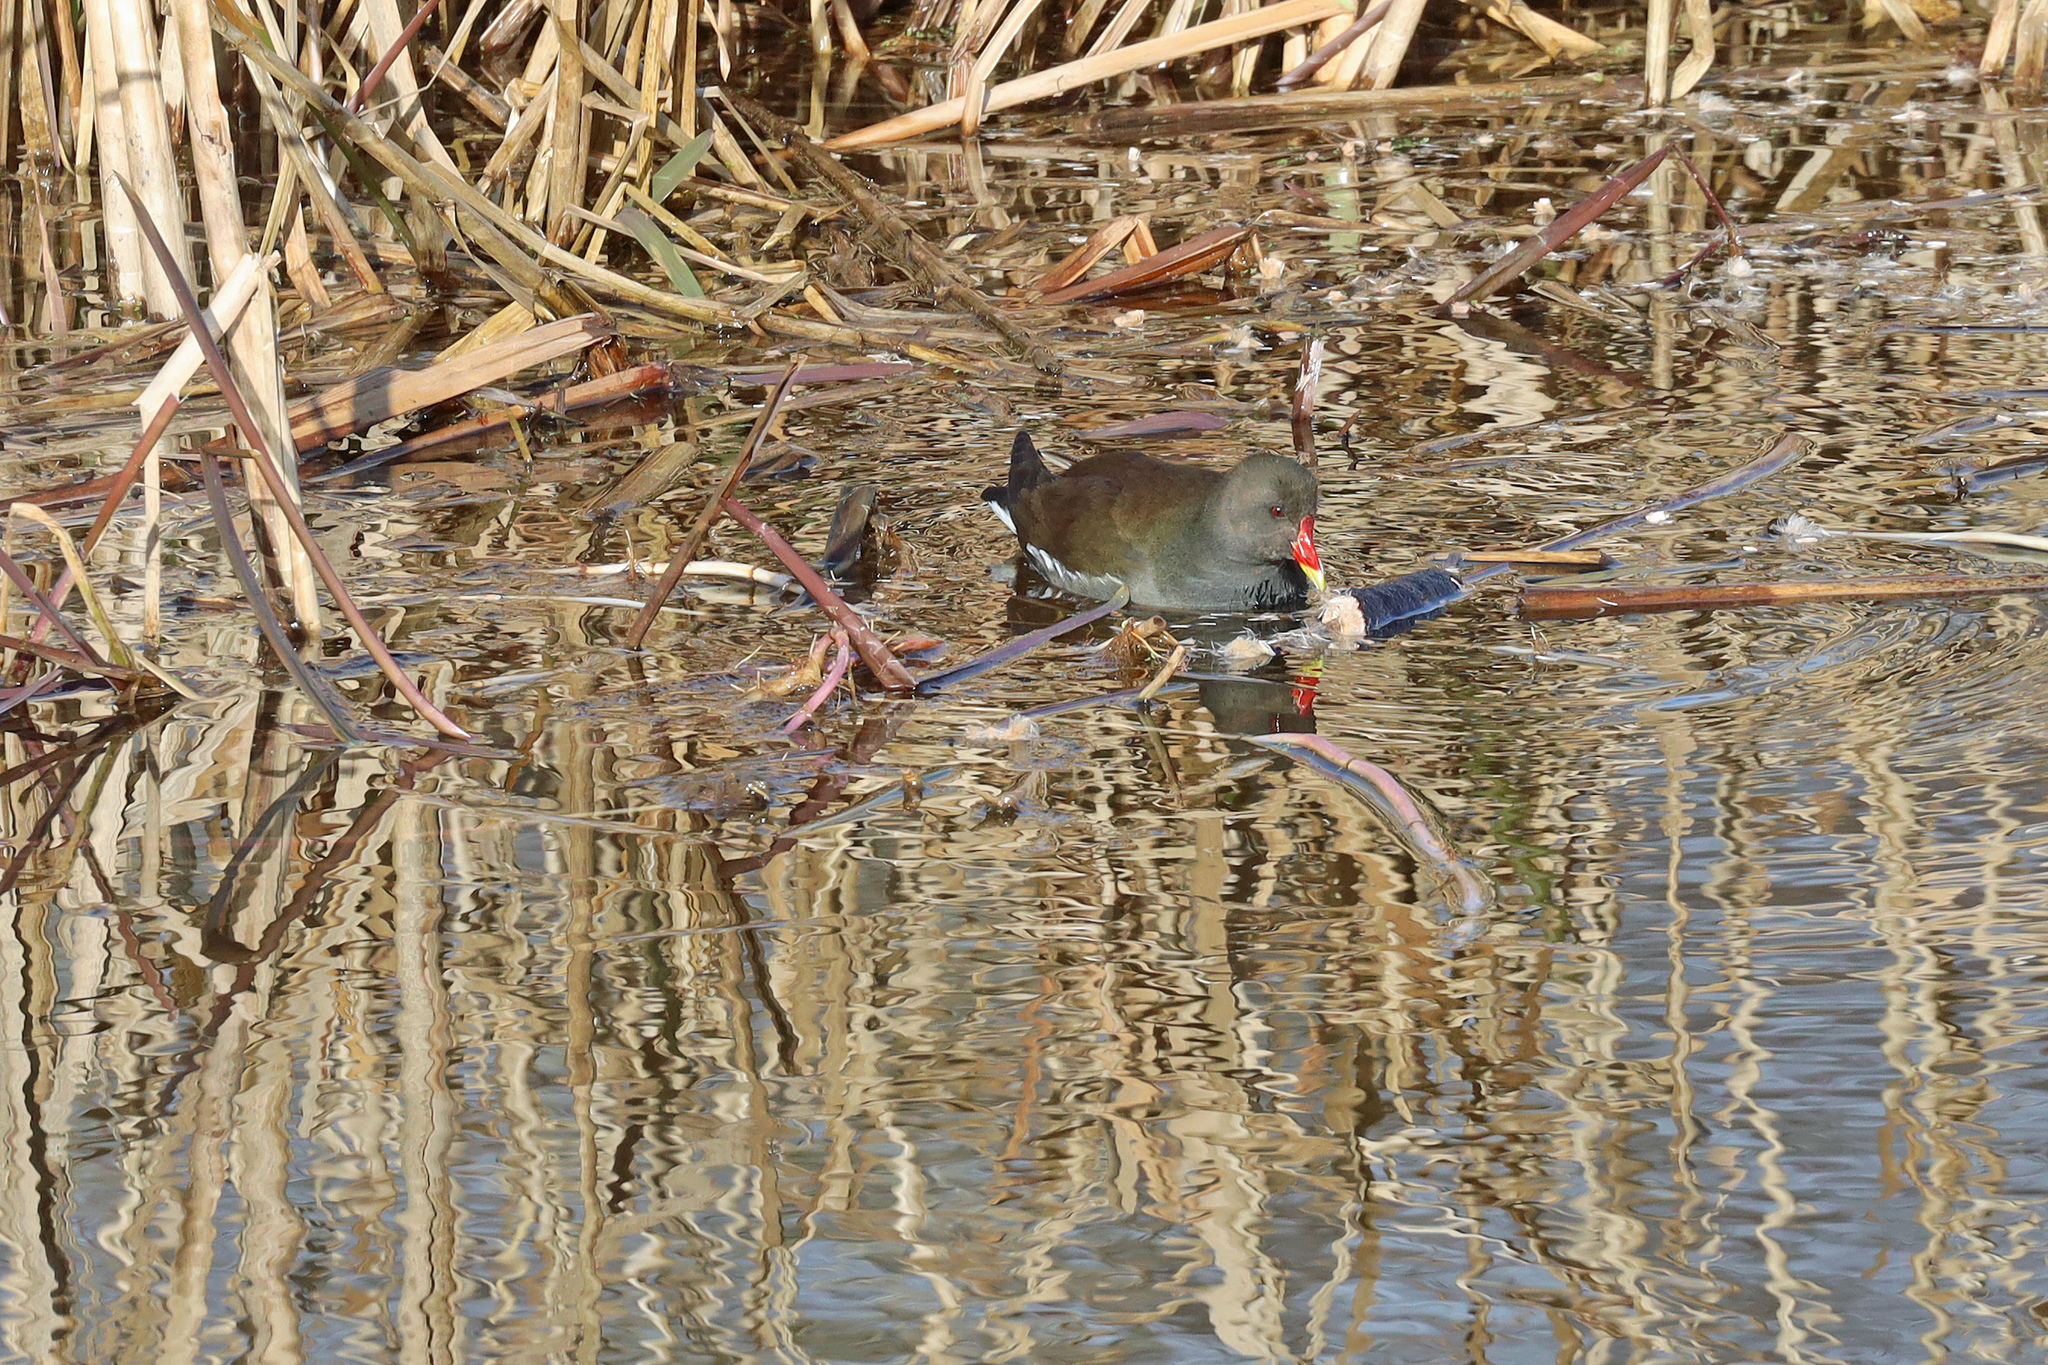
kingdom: Animalia
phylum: Chordata
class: Aves
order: Gruiformes
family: Rallidae
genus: Gallinula
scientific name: Gallinula chloropus
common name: Common moorhen
